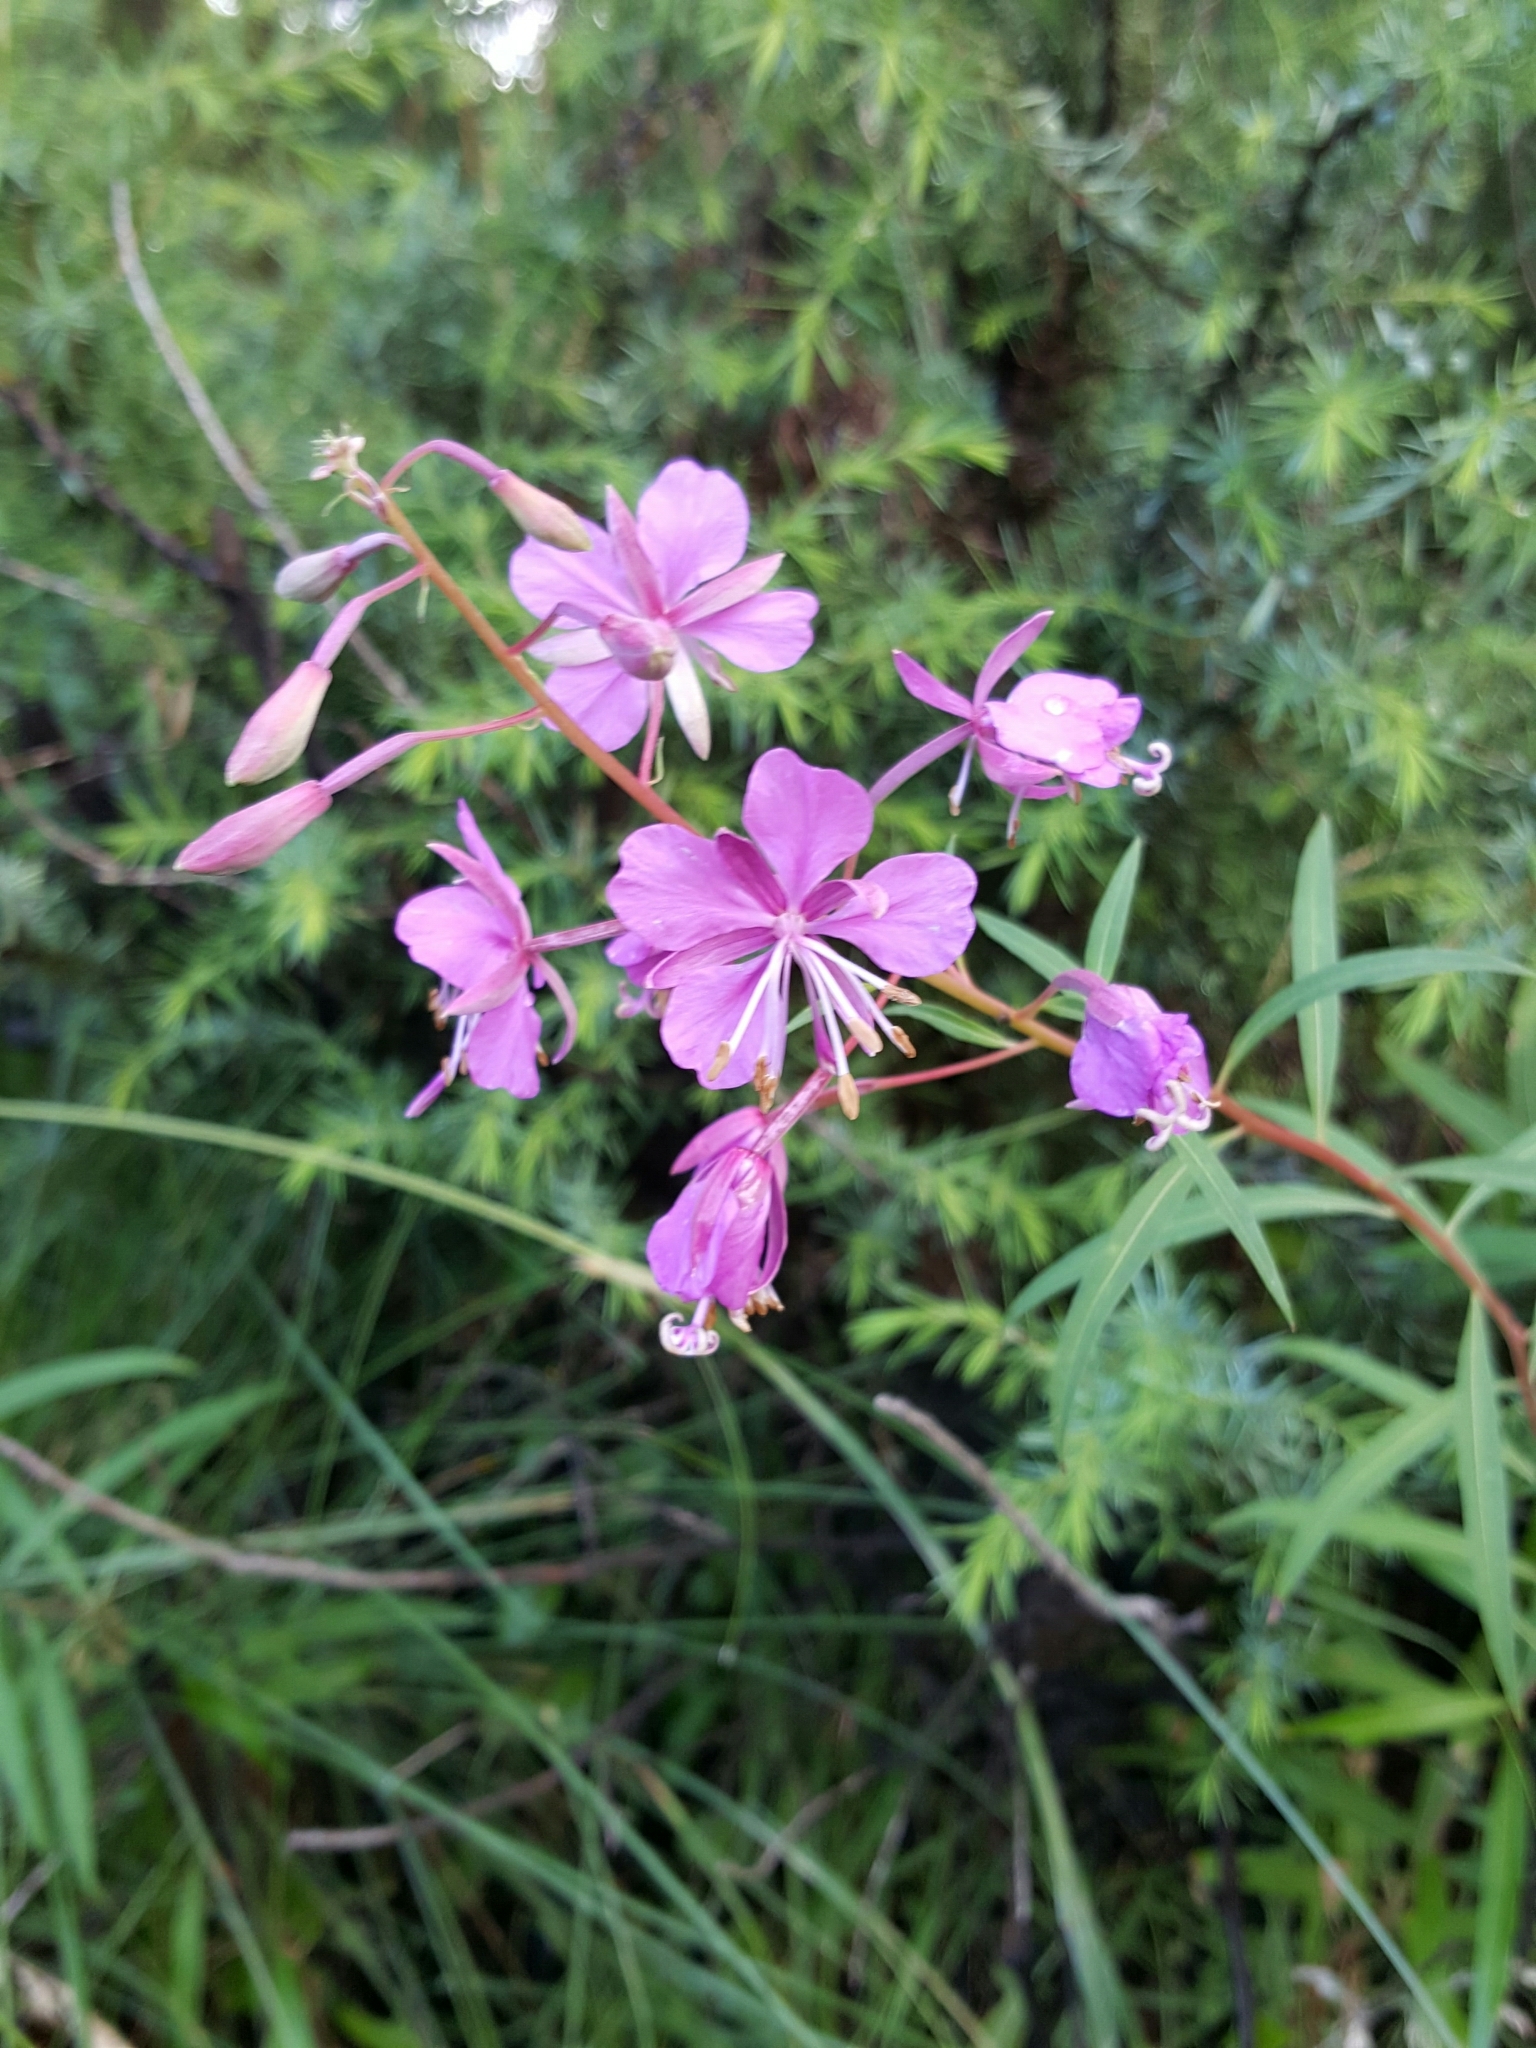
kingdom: Plantae
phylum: Tracheophyta
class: Magnoliopsida
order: Myrtales
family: Onagraceae
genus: Chamaenerion
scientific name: Chamaenerion angustifolium
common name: Fireweed
